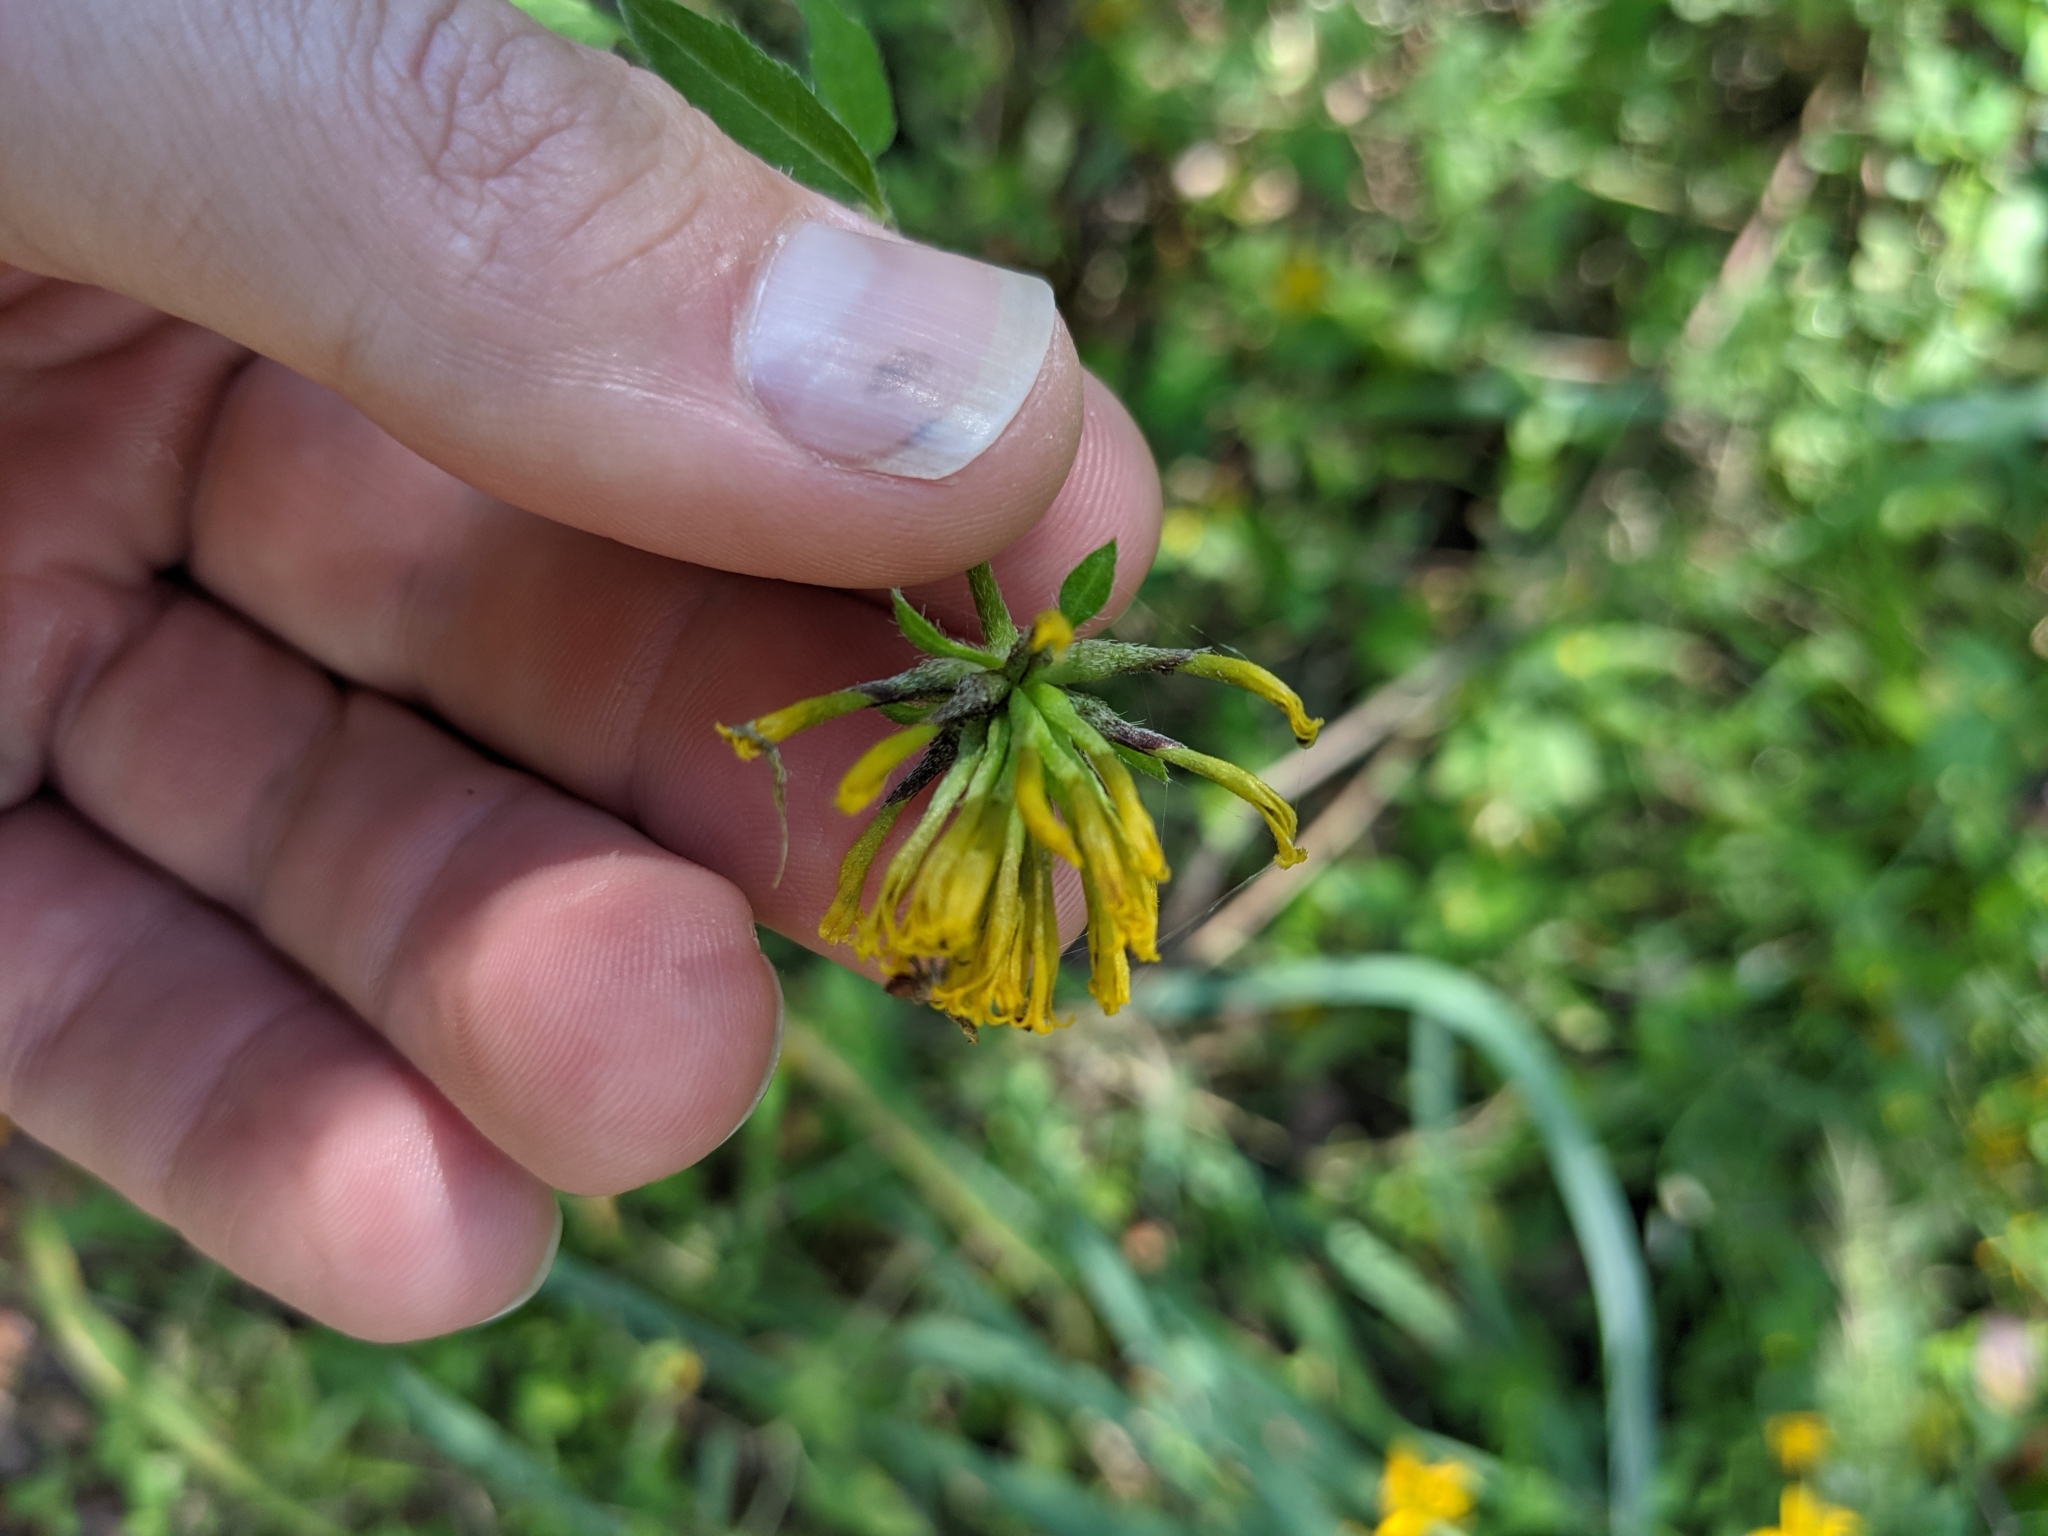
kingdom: Plantae
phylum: Tracheophyta
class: Magnoliopsida
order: Asterales
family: Asteraceae
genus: Sclerocarpus
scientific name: Sclerocarpus uniserialis
